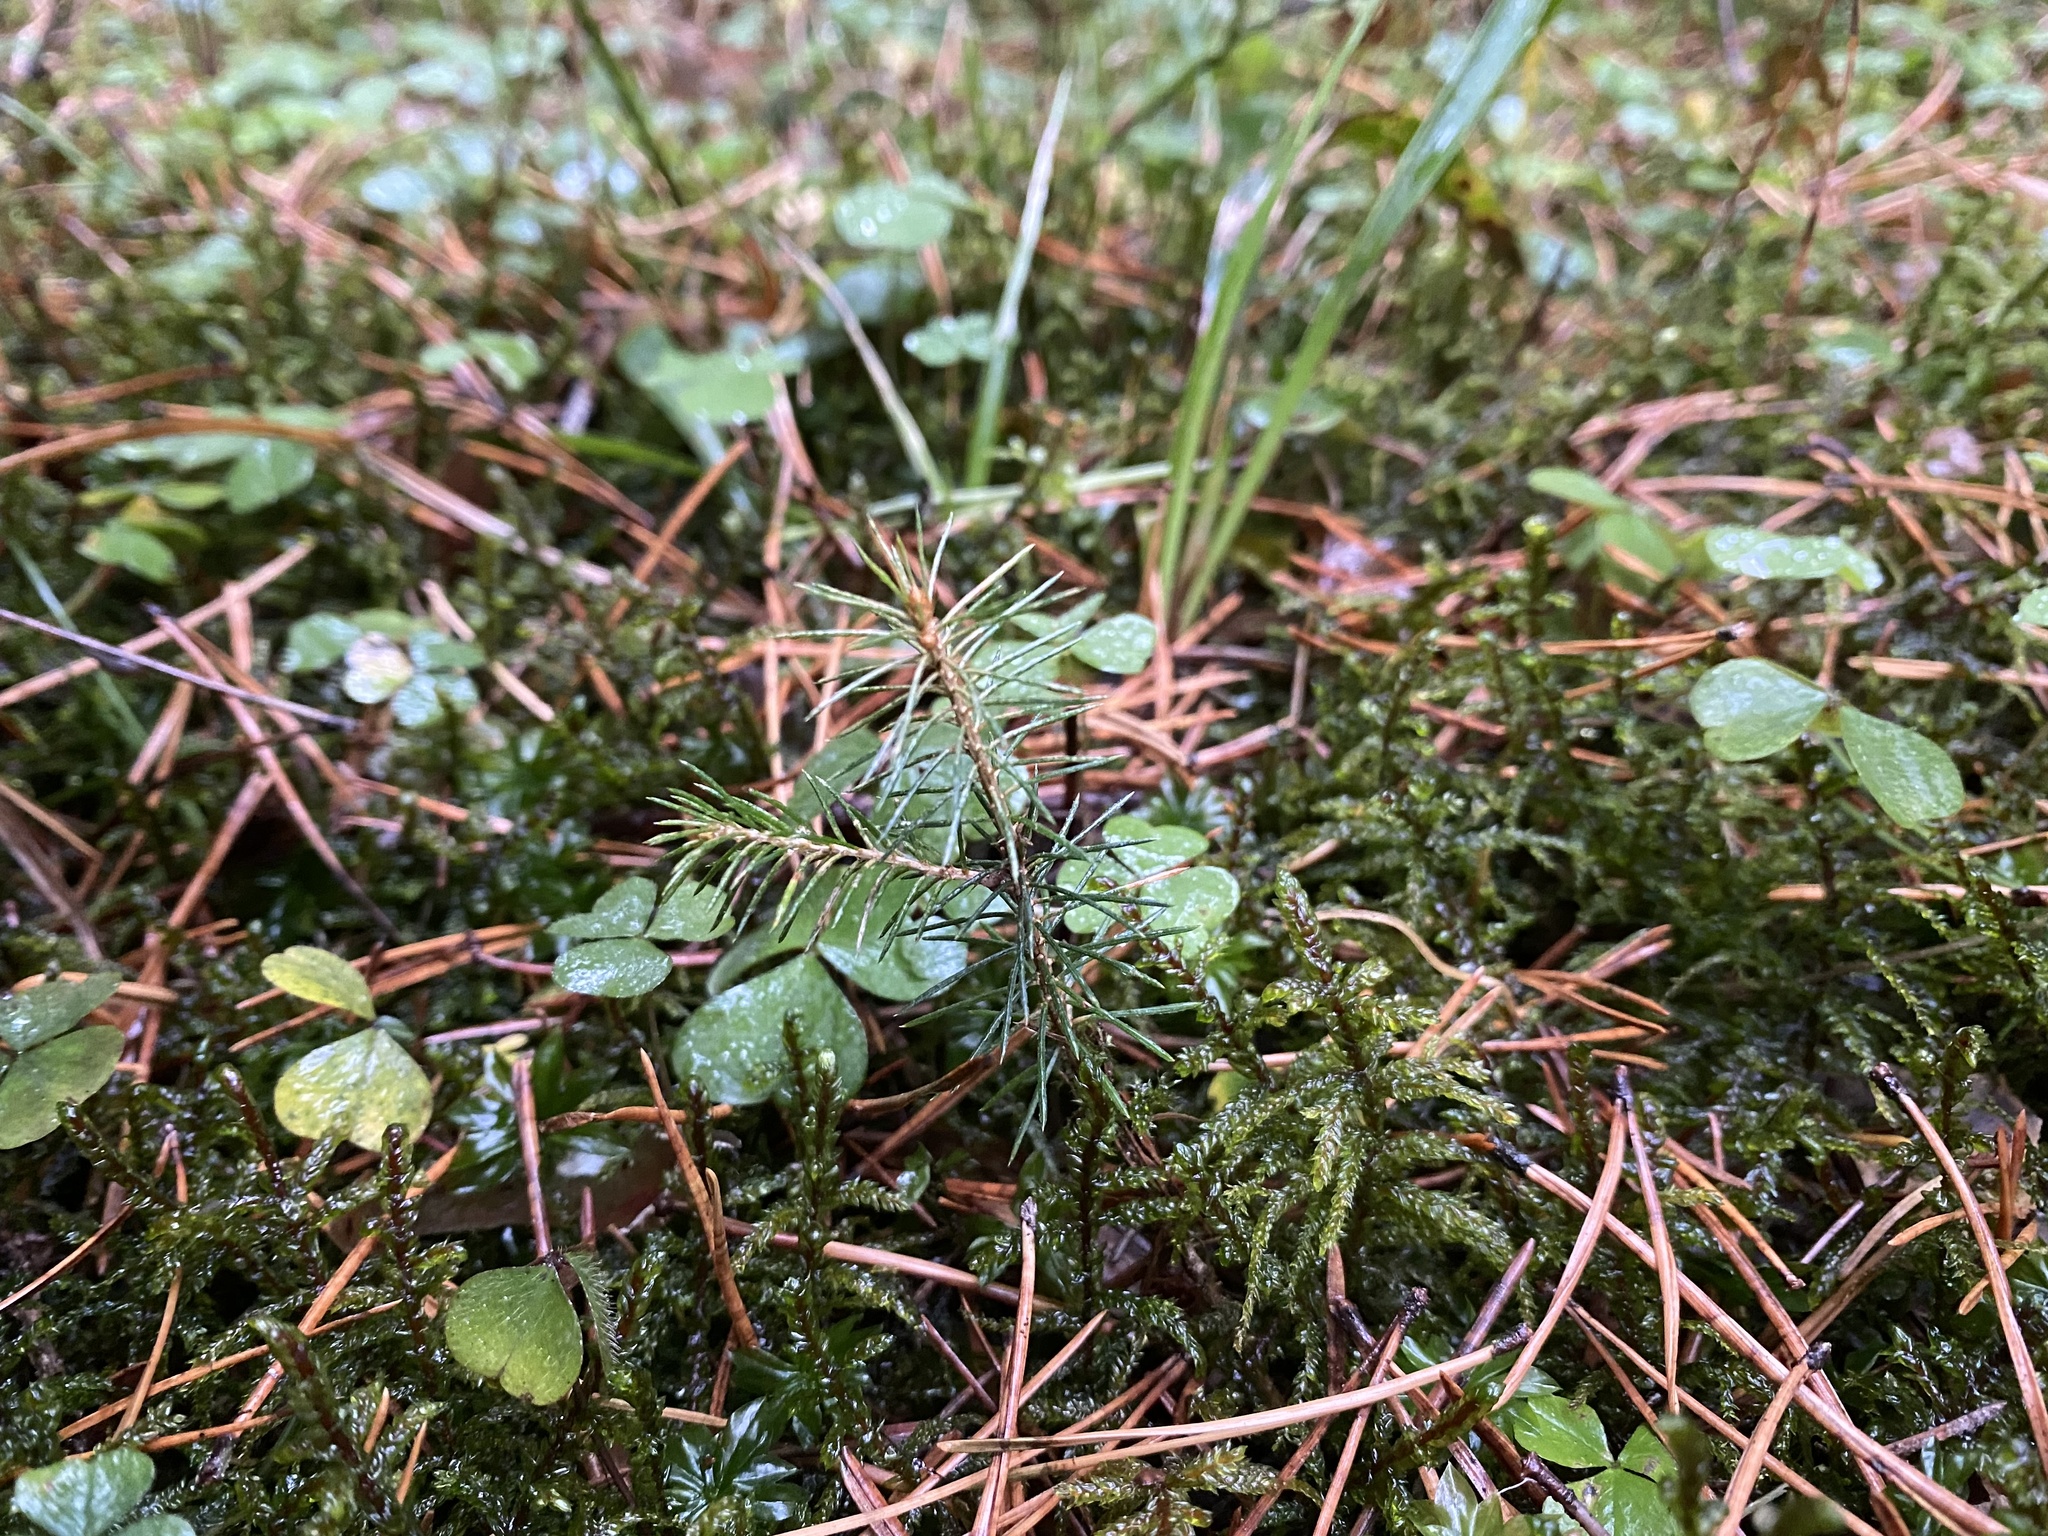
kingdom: Plantae
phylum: Bryophyta
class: Bryopsida
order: Hypnales
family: Hylocomiaceae
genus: Pleurozium
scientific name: Pleurozium schreberi
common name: Red-stemmed feather moss
